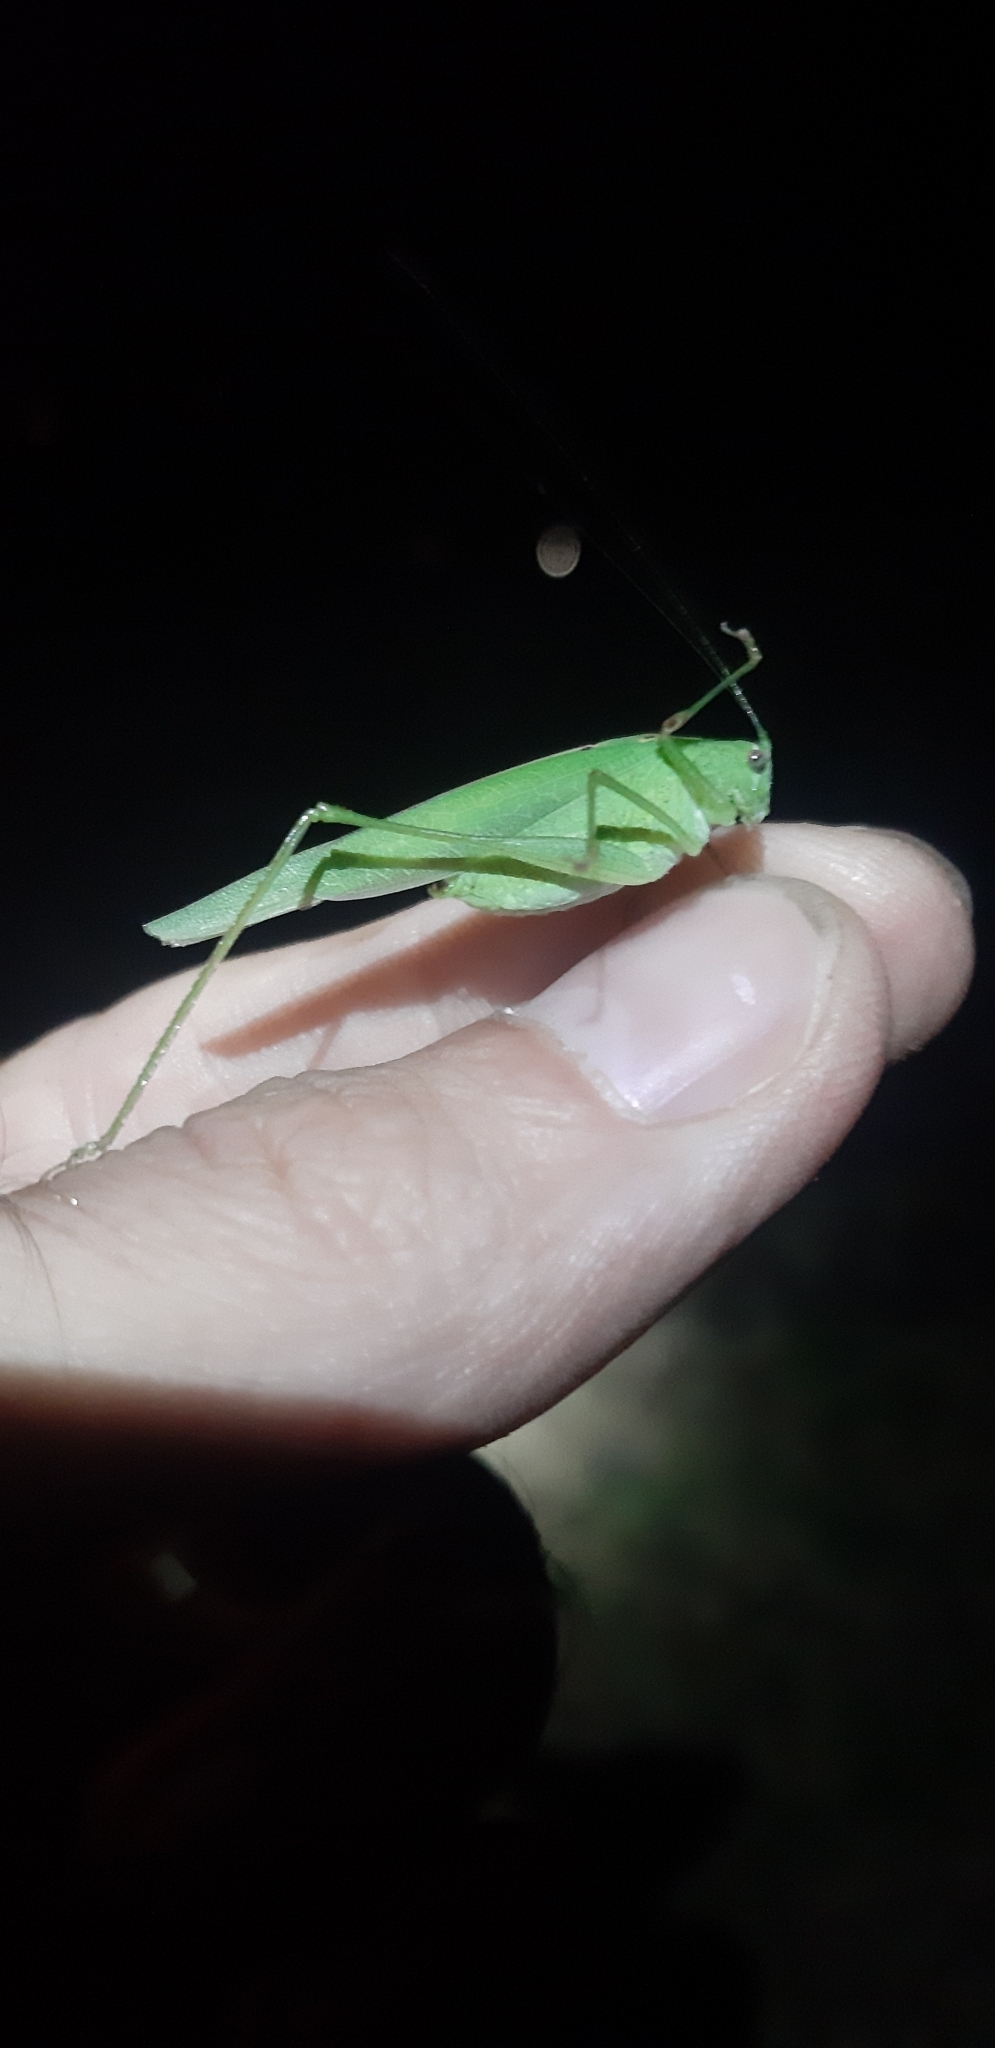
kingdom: Animalia
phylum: Arthropoda
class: Insecta
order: Orthoptera
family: Tettigoniidae
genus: Phaneroptera
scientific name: Phaneroptera nana
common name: Southern sickle bush-cricket
